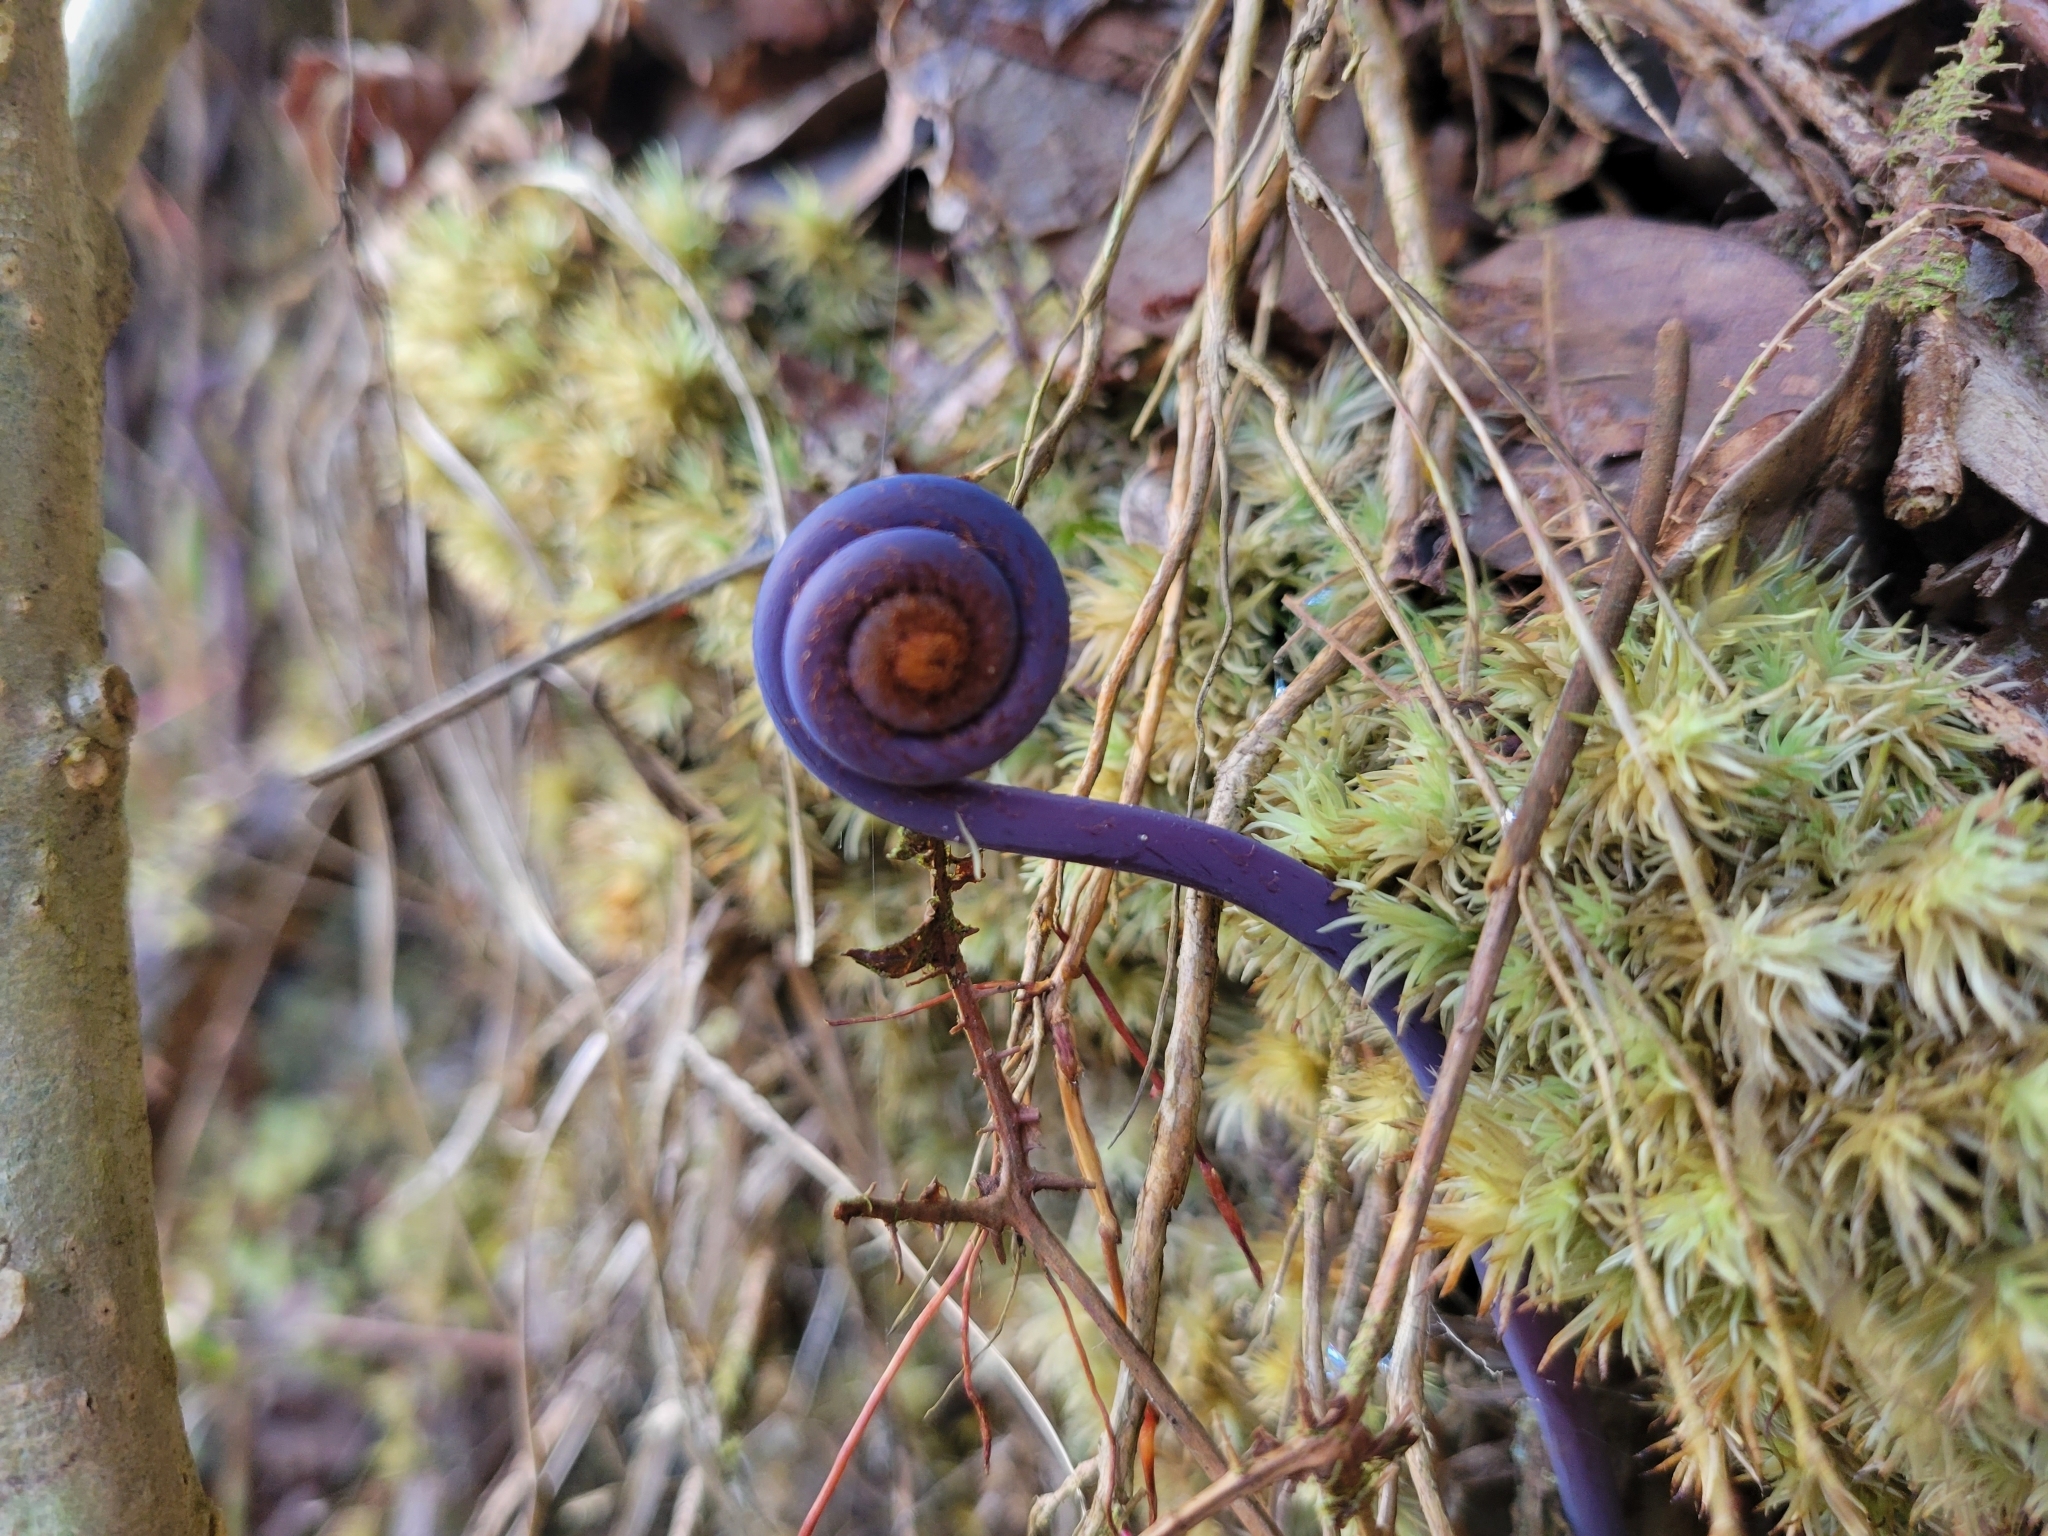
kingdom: Plantae
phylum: Tracheophyta
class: Polypodiopsida
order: Gleicheniales
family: Gleicheniaceae
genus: Dicranopteris
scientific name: Dicranopteris linearis
